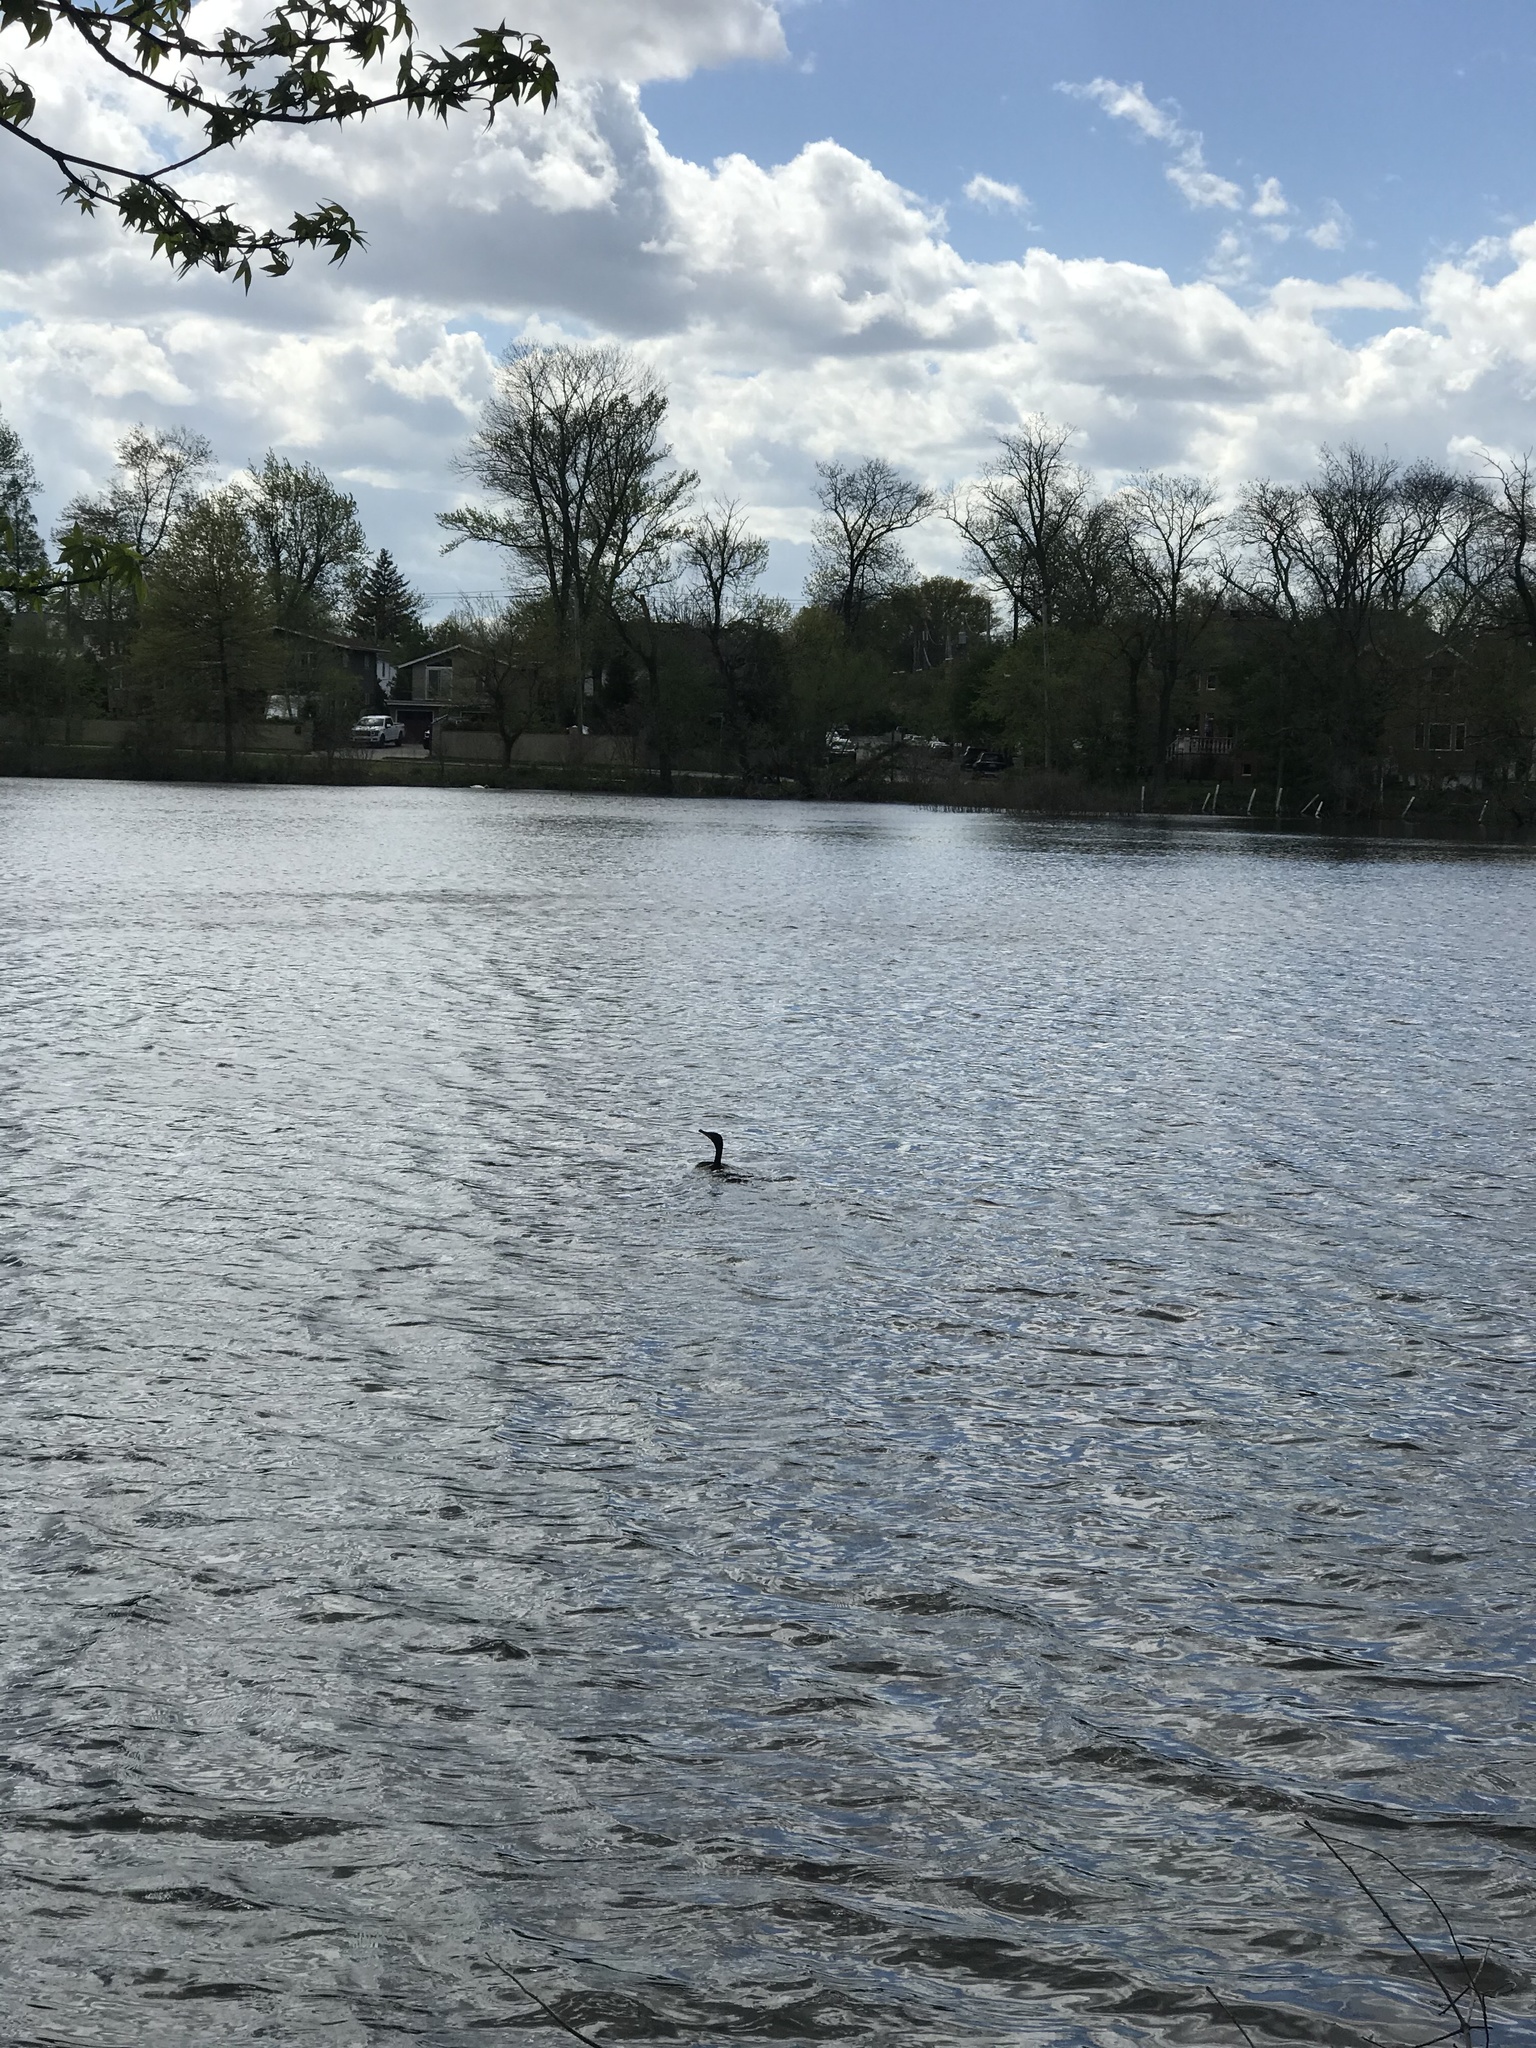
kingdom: Animalia
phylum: Chordata
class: Aves
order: Suliformes
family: Phalacrocoracidae
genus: Phalacrocorax
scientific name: Phalacrocorax auritus
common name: Double-crested cormorant
